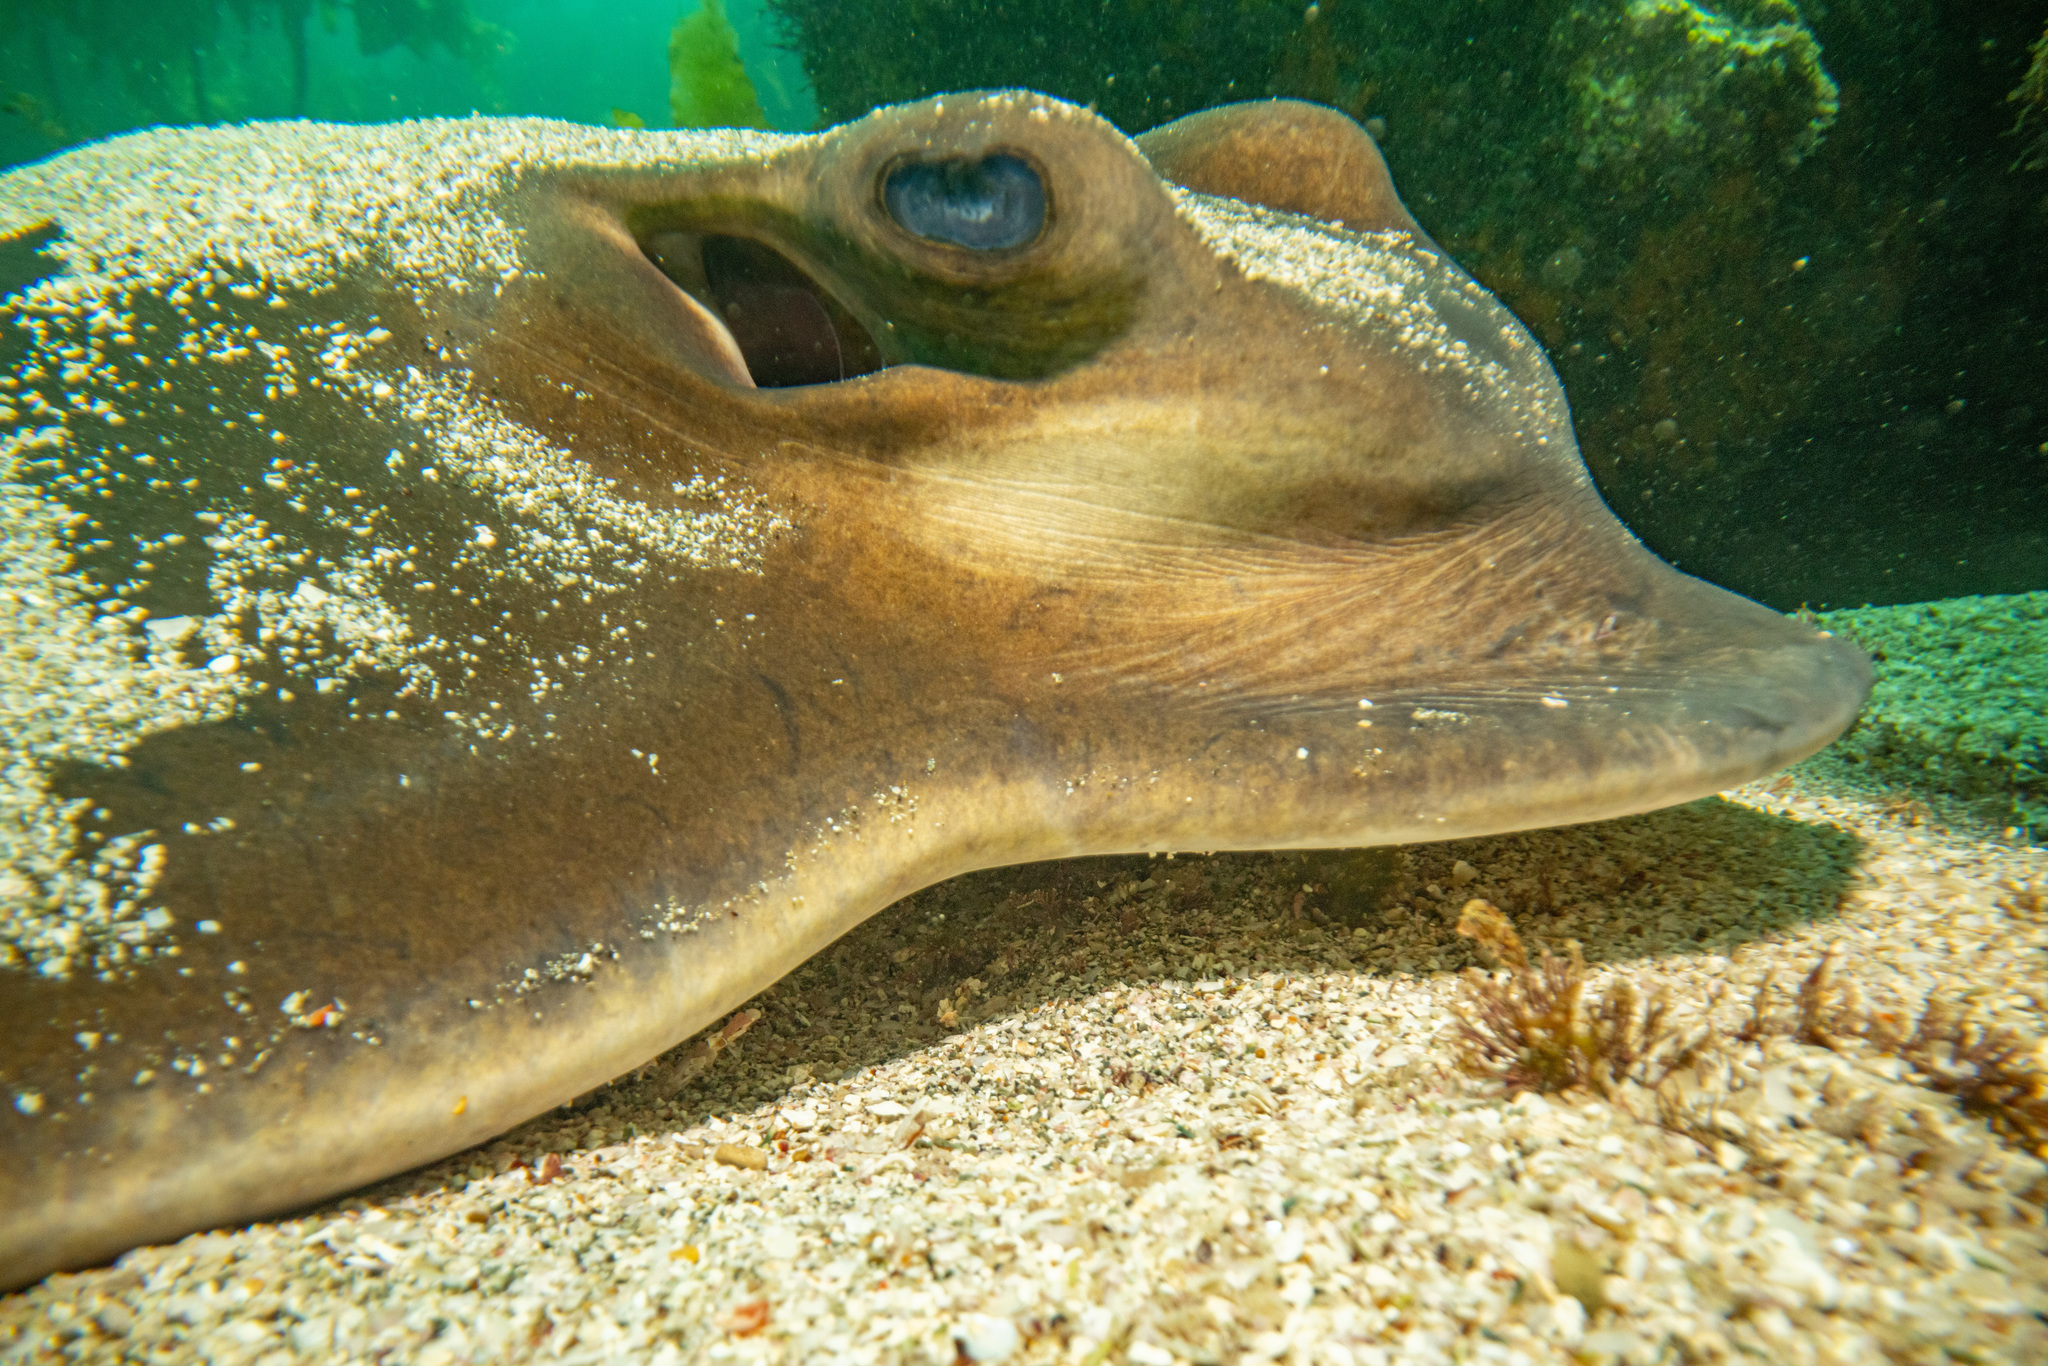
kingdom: Animalia
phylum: Chordata
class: Elasmobranchii
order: Myliobatiformes
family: Myliobatidae
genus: Myliobatis
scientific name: Myliobatis tenuicaudatus
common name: Eagle ray
